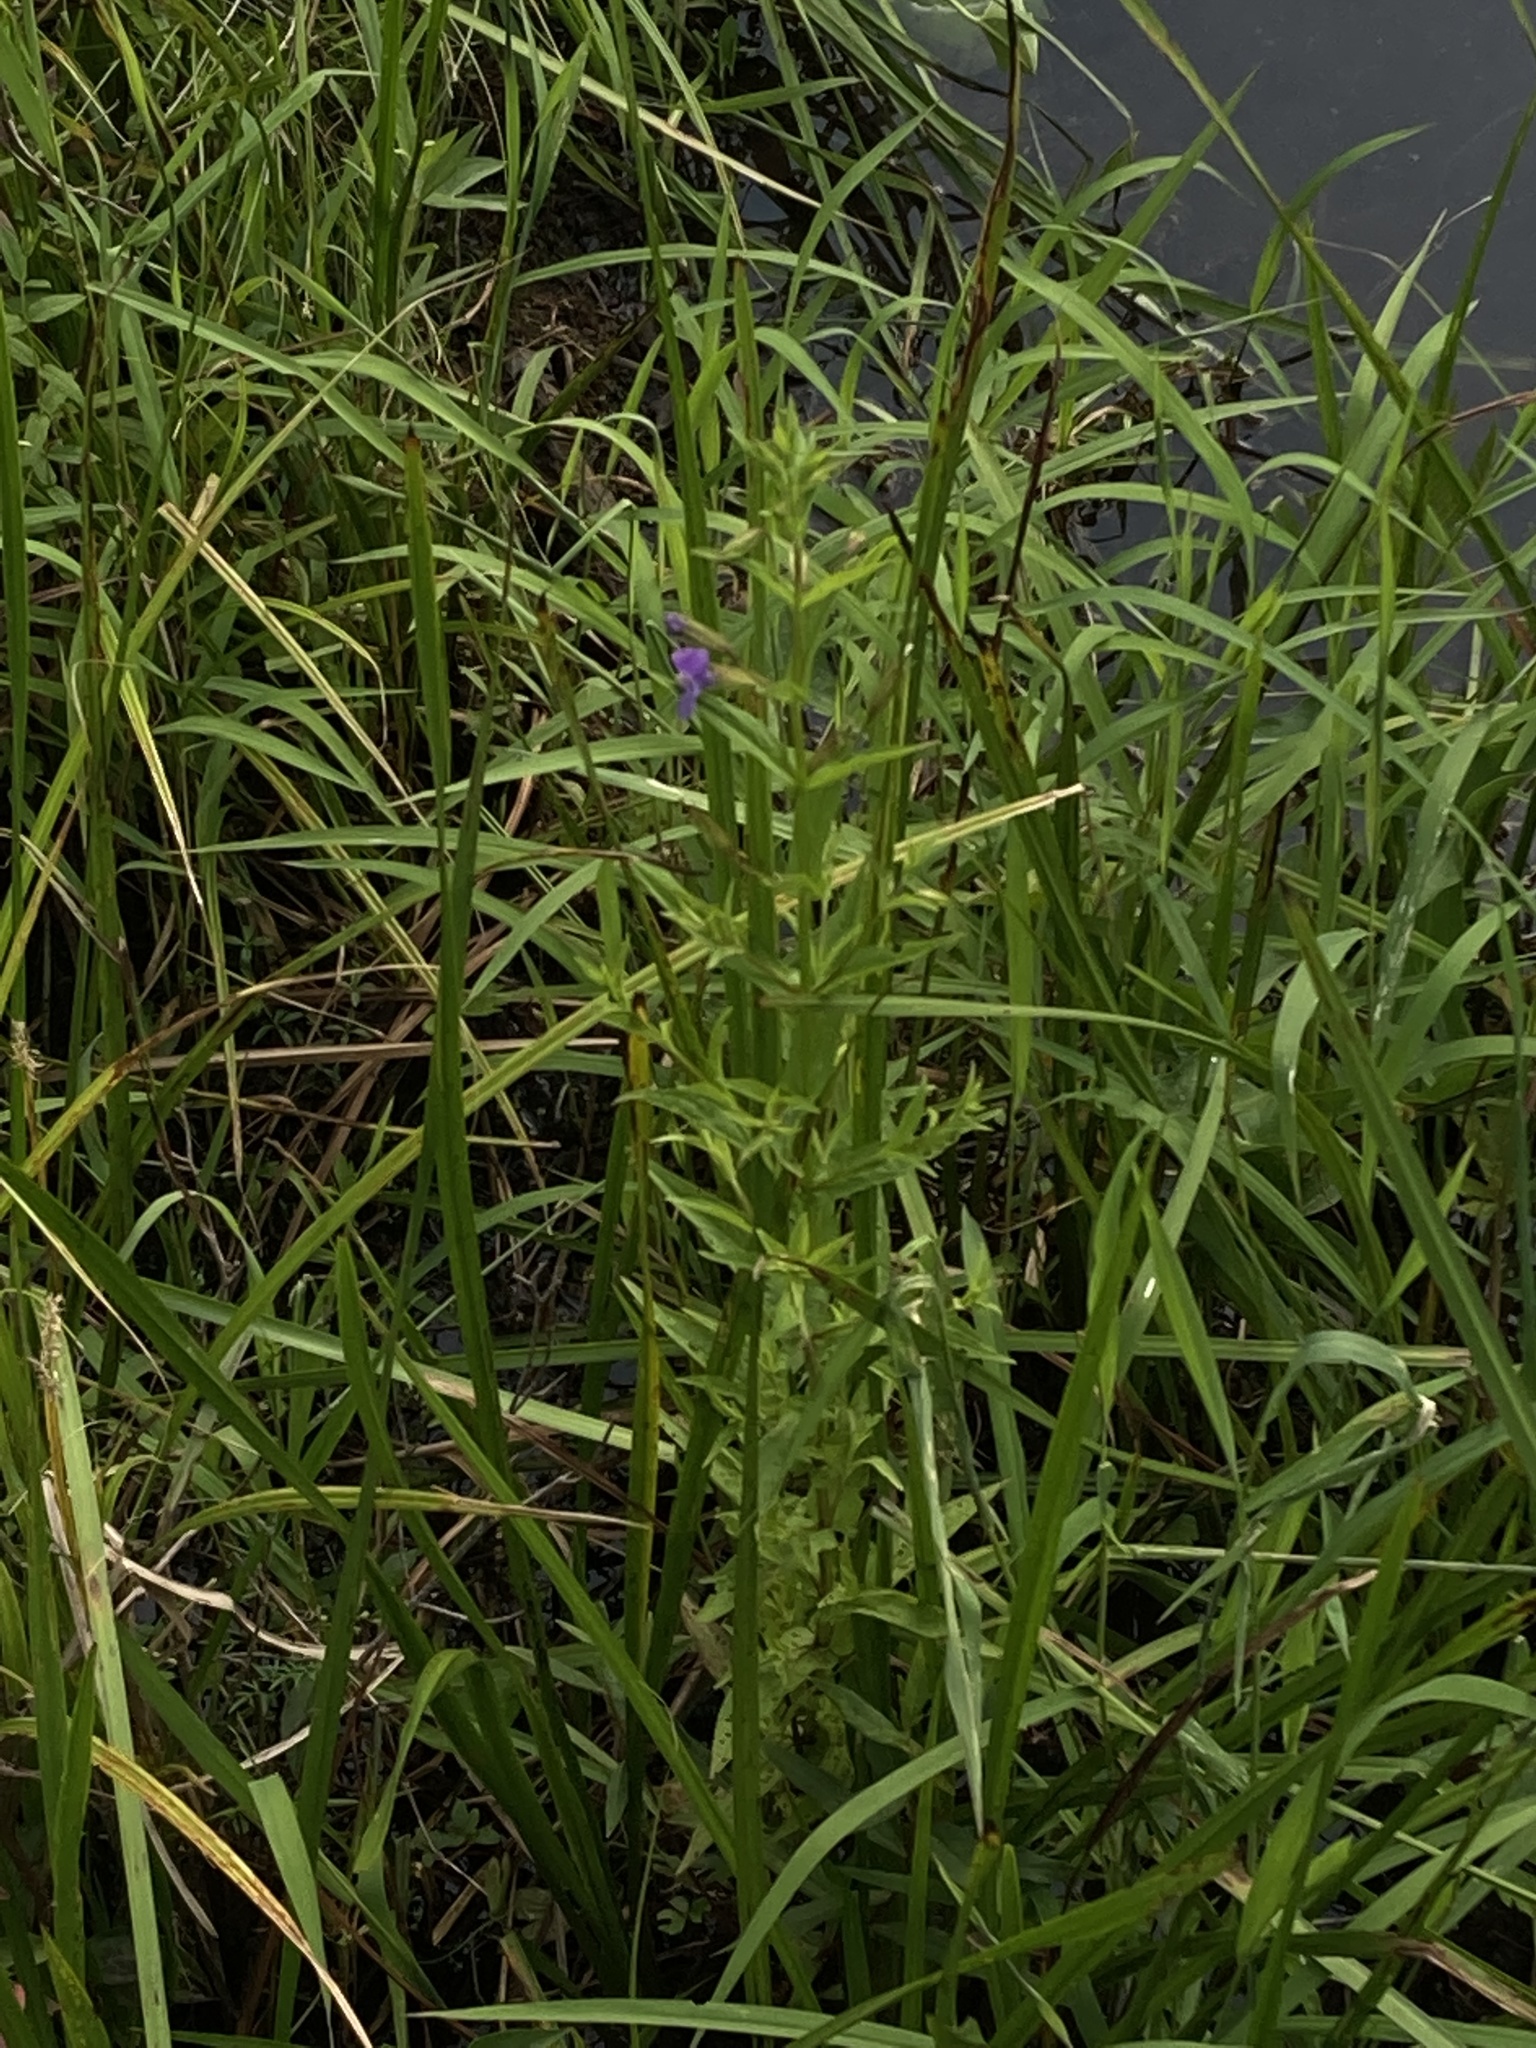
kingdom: Plantae
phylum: Tracheophyta
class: Magnoliopsida
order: Lamiales
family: Phrymaceae
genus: Mimulus
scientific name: Mimulus ringens
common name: Allegheny monkeyflower
